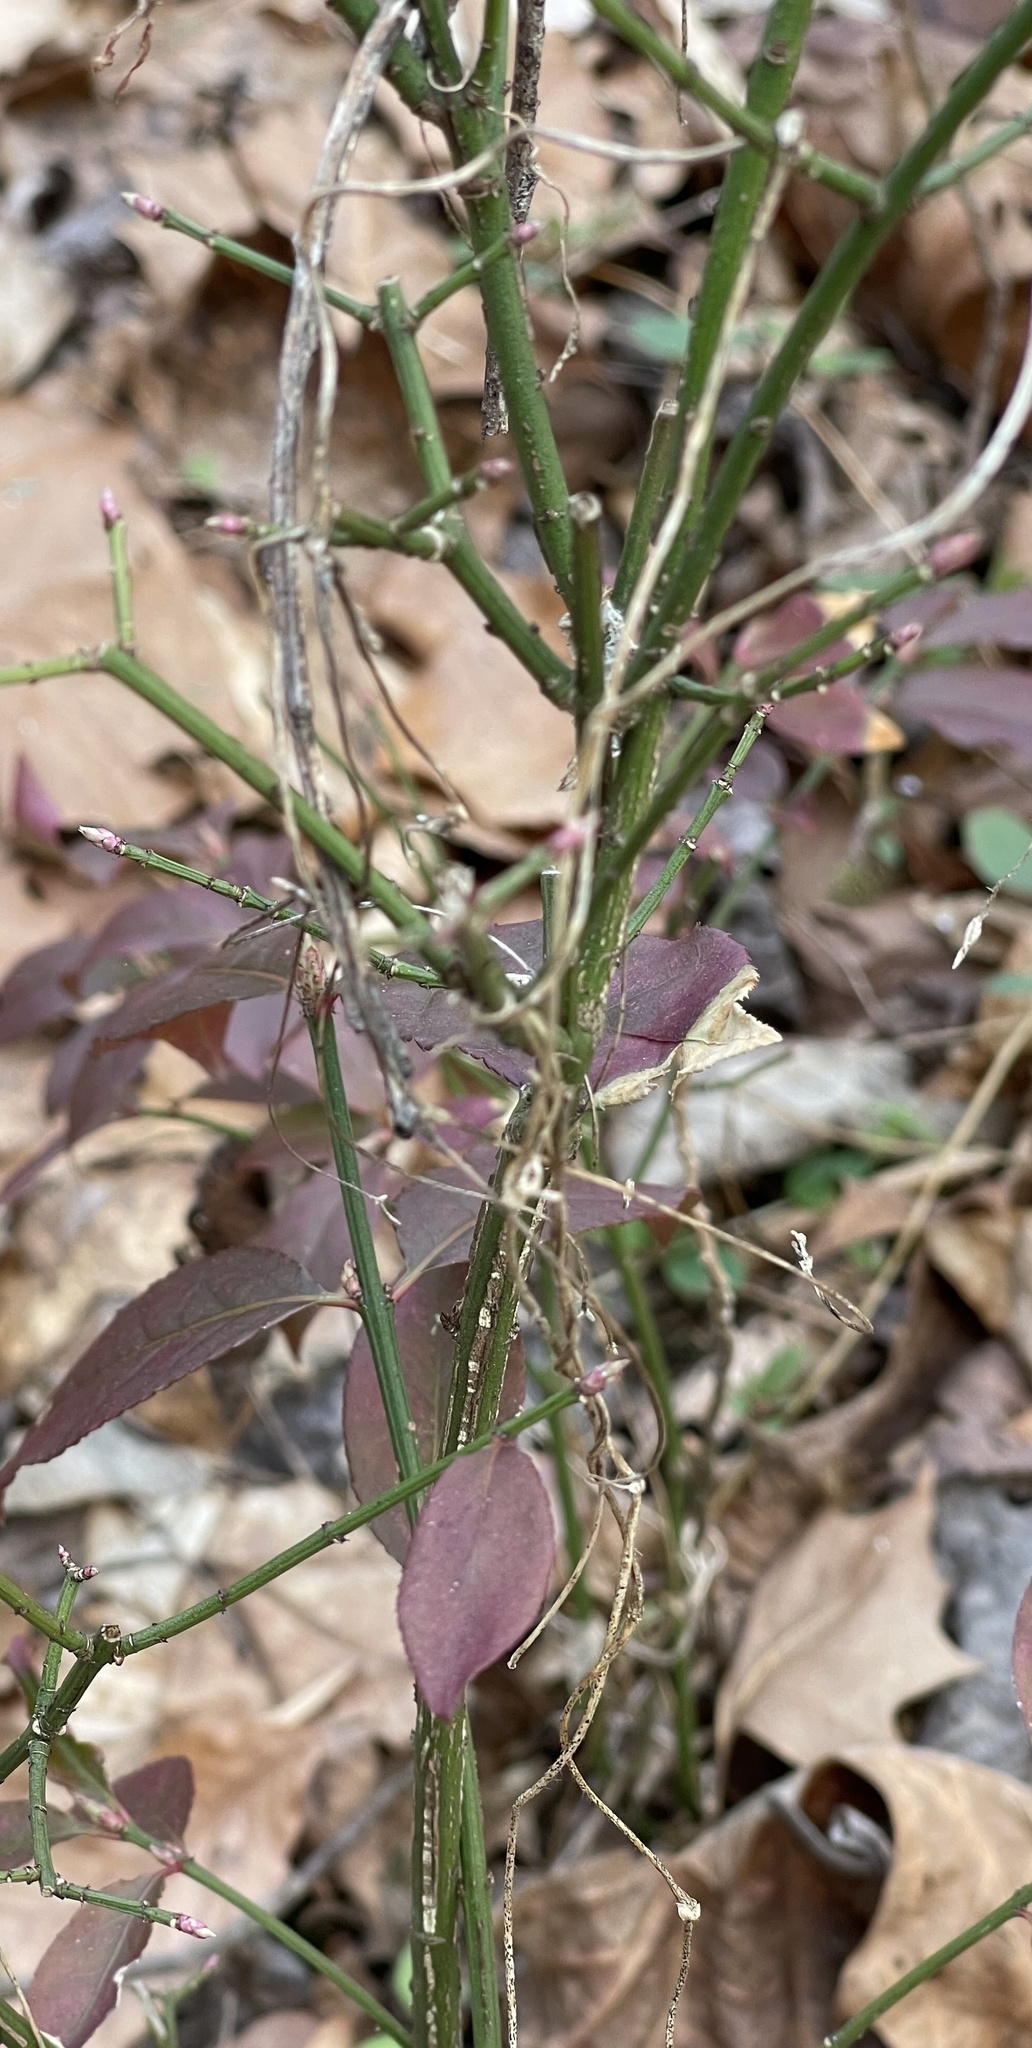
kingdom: Plantae
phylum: Tracheophyta
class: Magnoliopsida
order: Celastrales
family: Celastraceae
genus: Euonymus
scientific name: Euonymus alatus
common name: Winged euonymus
